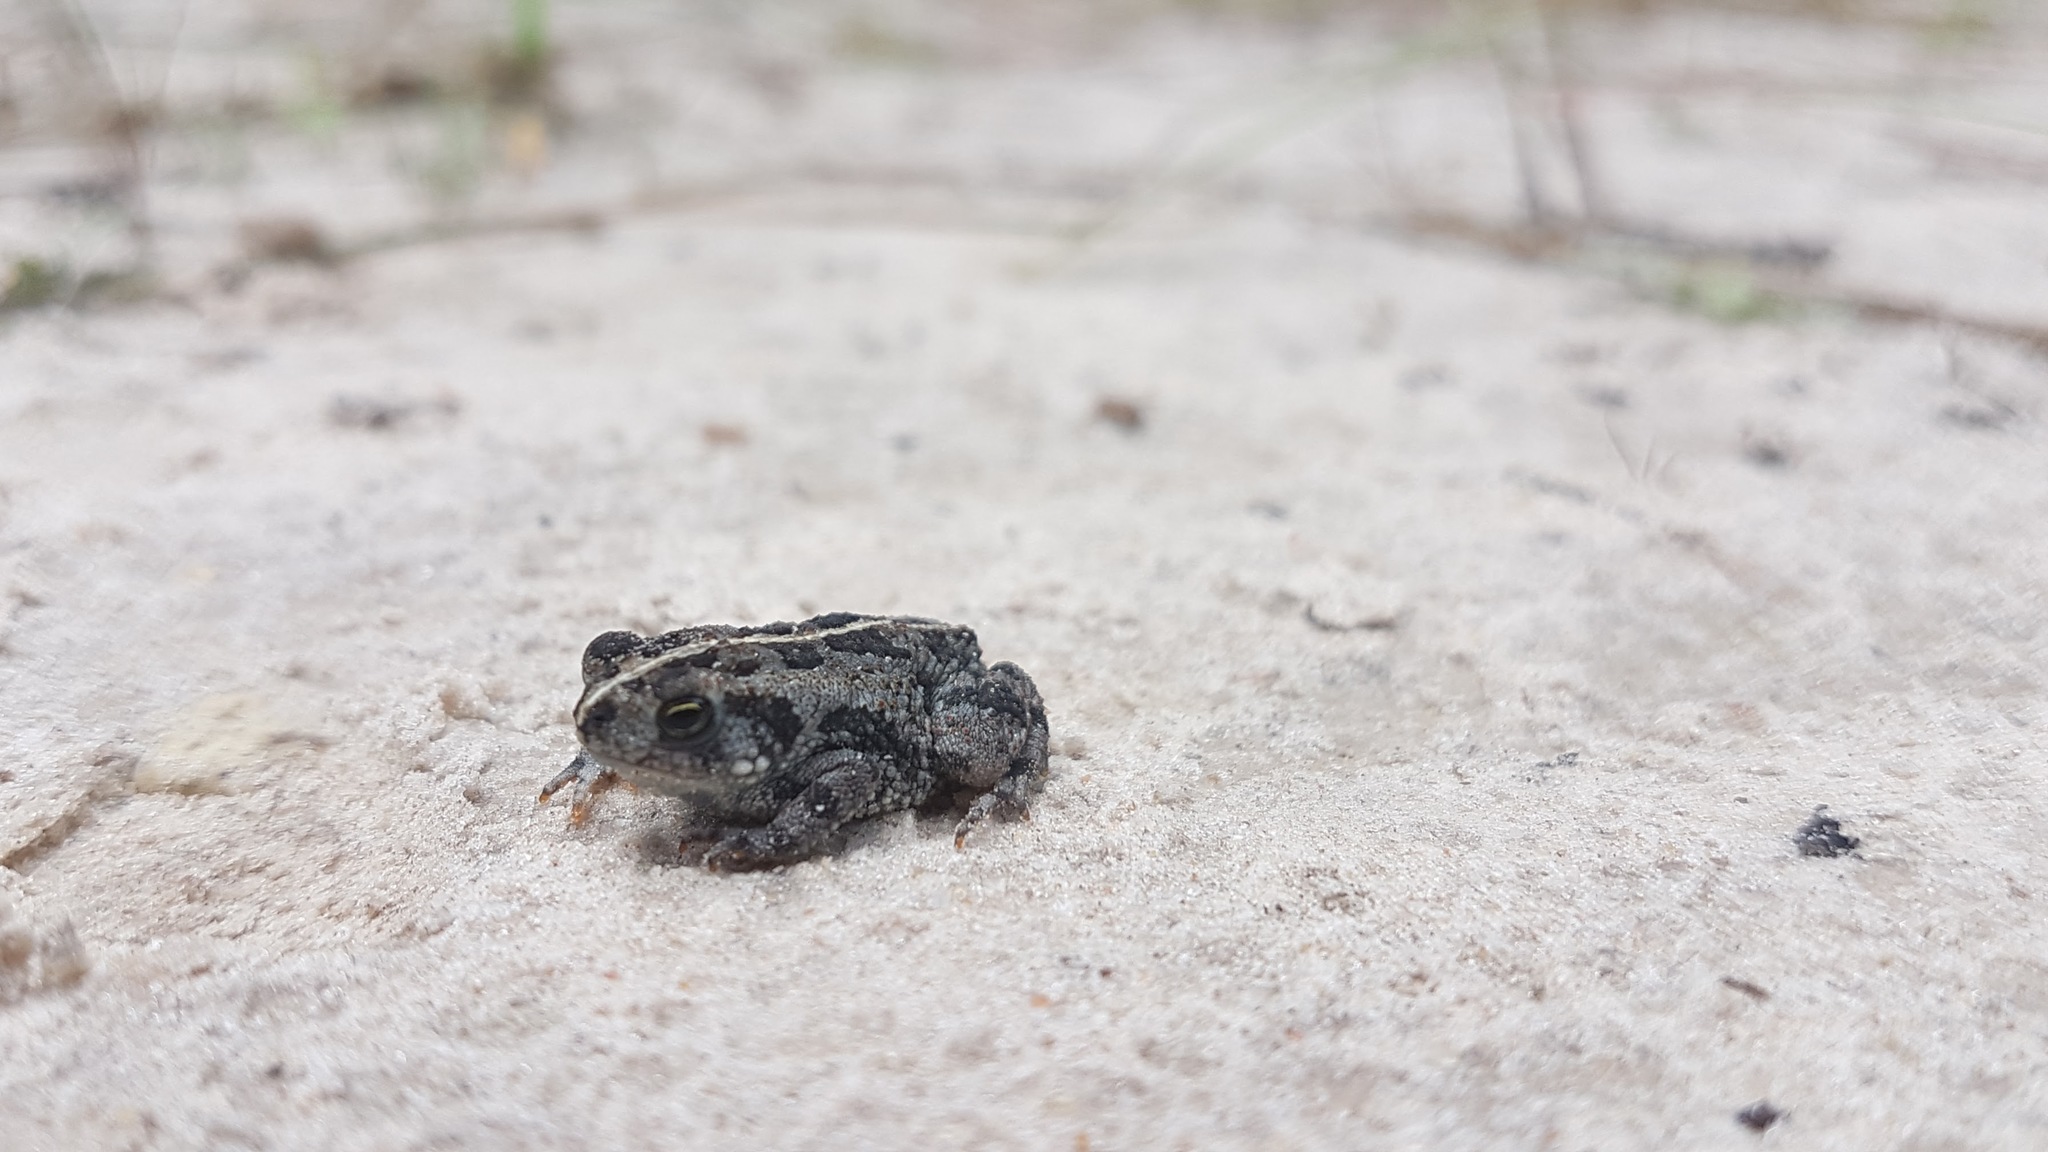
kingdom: Animalia
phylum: Chordata
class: Amphibia
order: Anura
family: Bufonidae
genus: Anaxyrus
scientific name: Anaxyrus quercicus
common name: Oak toad
